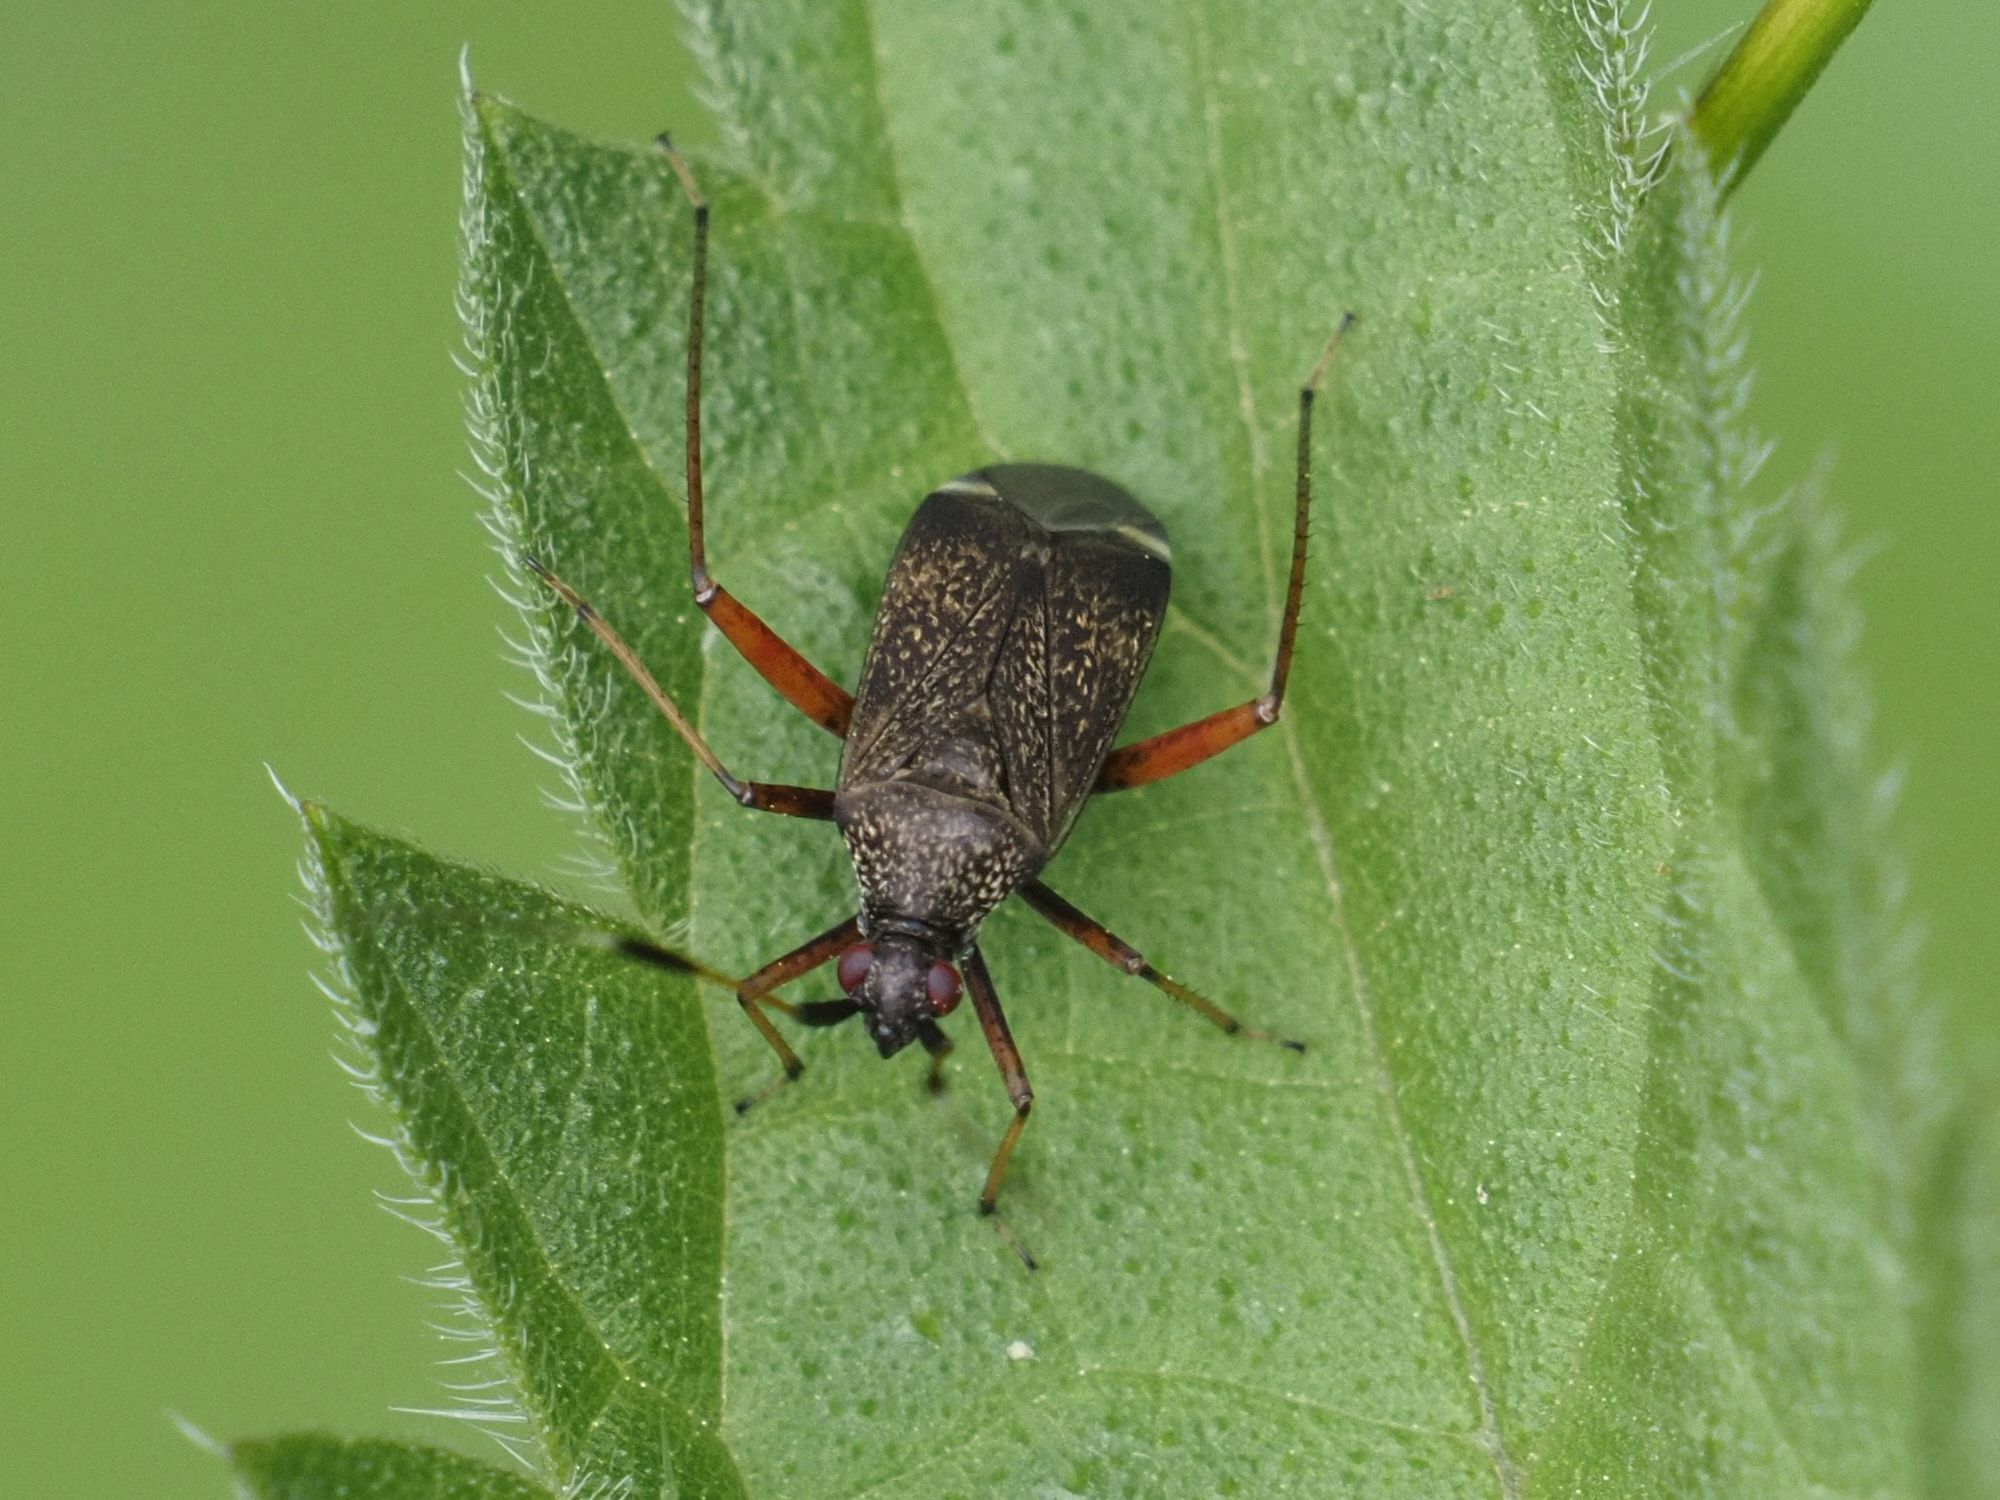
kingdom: Animalia
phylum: Arthropoda
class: Insecta
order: Hemiptera
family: Miridae
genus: Closterotomus
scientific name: Closterotomus biclavatus
